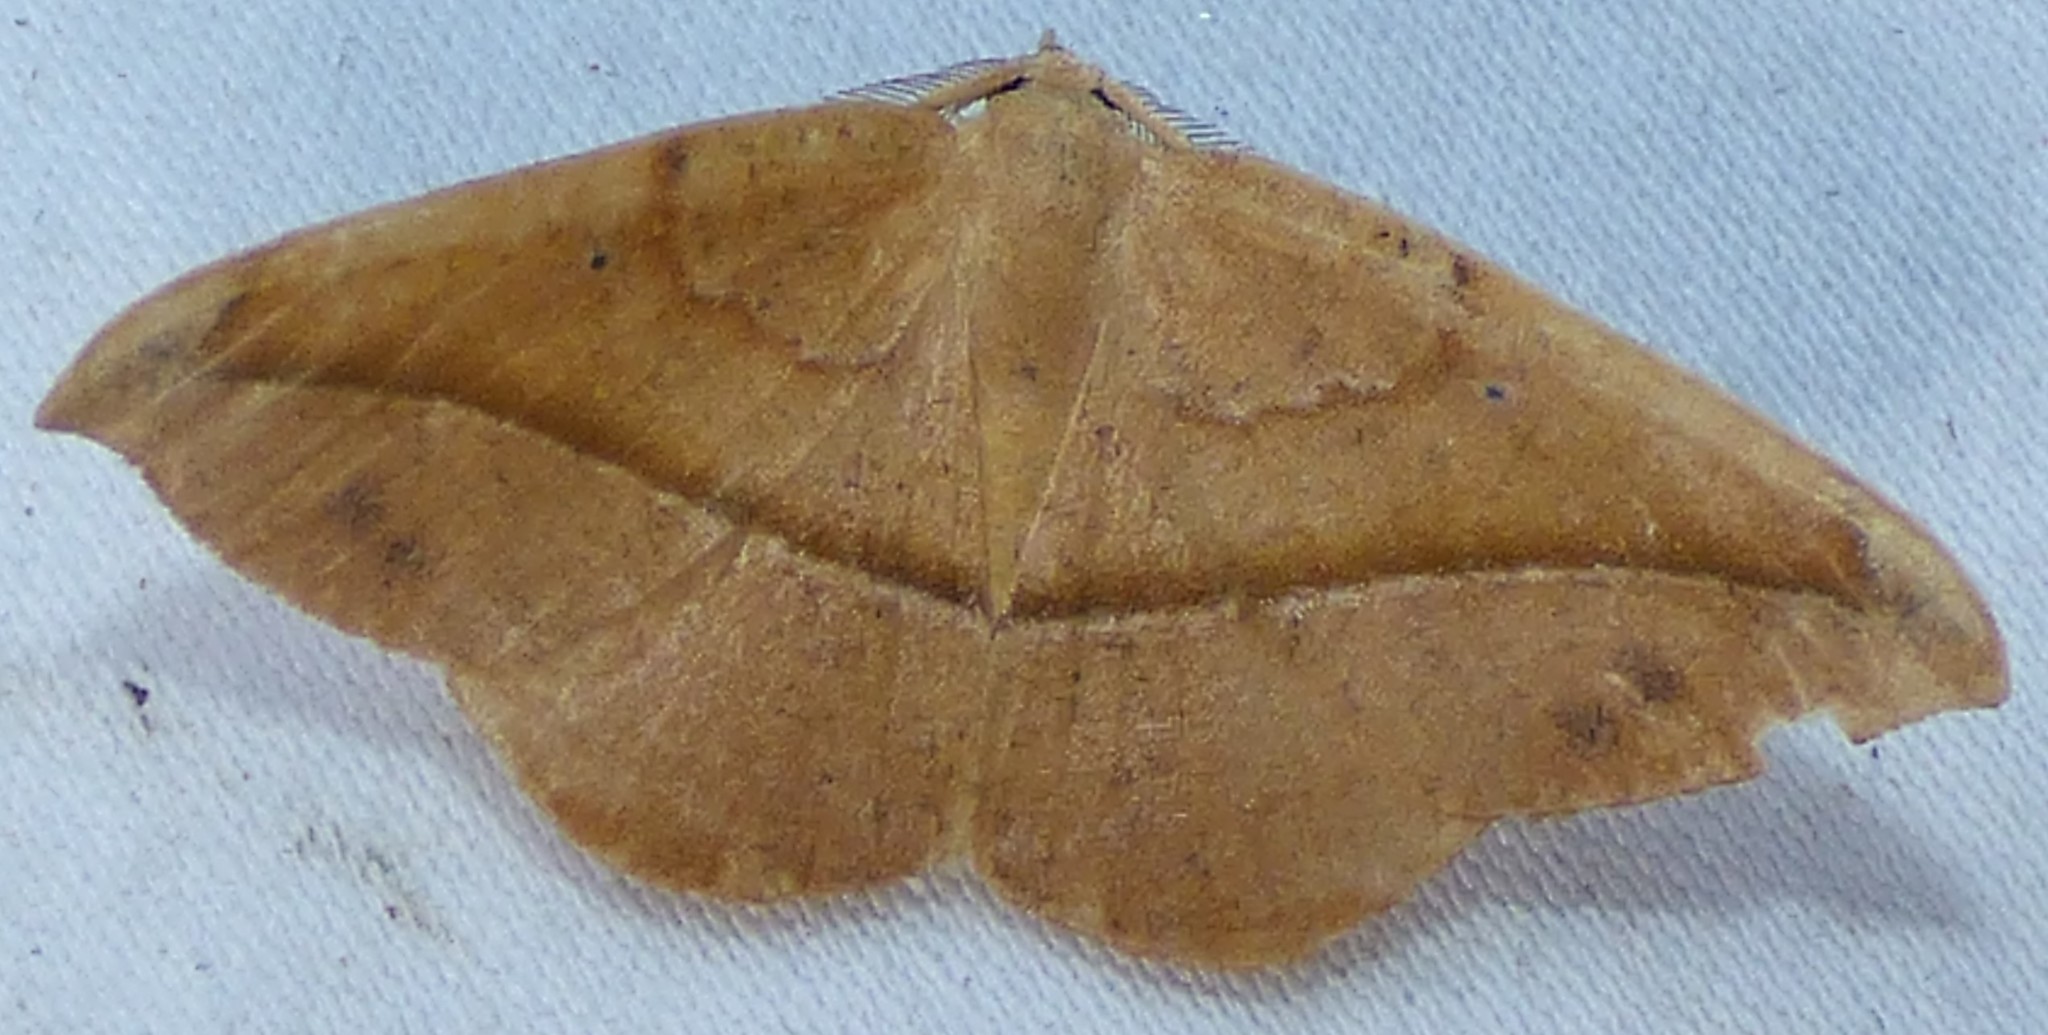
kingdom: Animalia
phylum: Arthropoda
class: Insecta
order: Lepidoptera
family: Geometridae
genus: Patalene
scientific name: Patalene olyzonaria
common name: Juniper geometer moth
